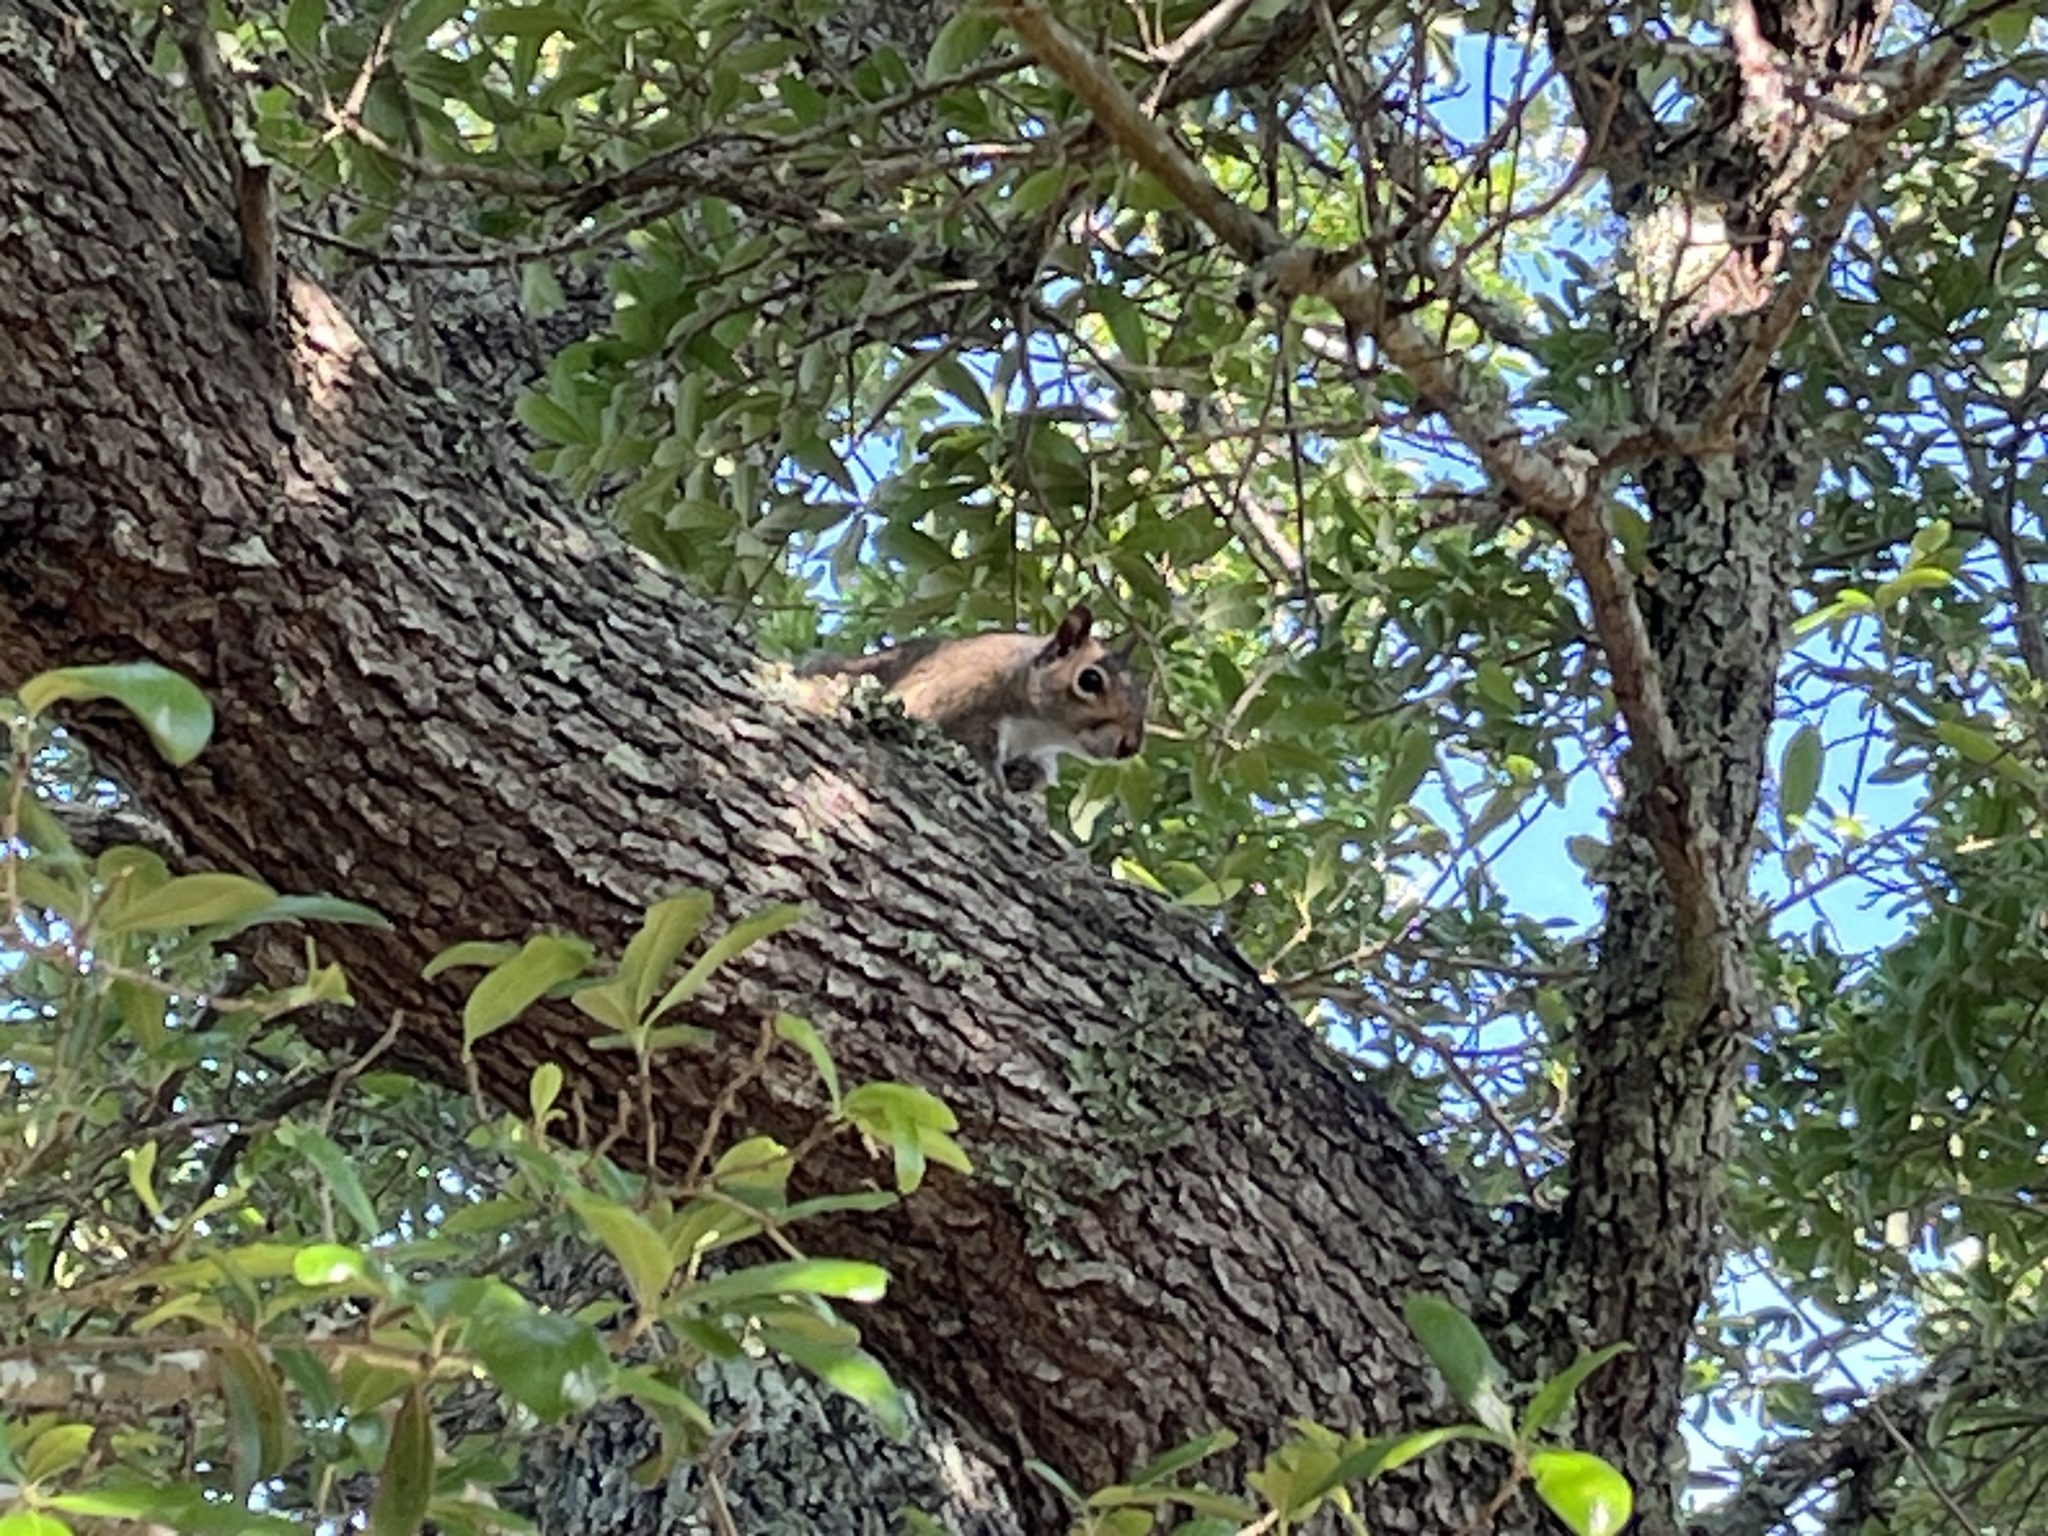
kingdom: Animalia
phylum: Chordata
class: Mammalia
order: Rodentia
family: Sciuridae
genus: Sciurus
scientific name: Sciurus carolinensis
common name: Eastern gray squirrel
